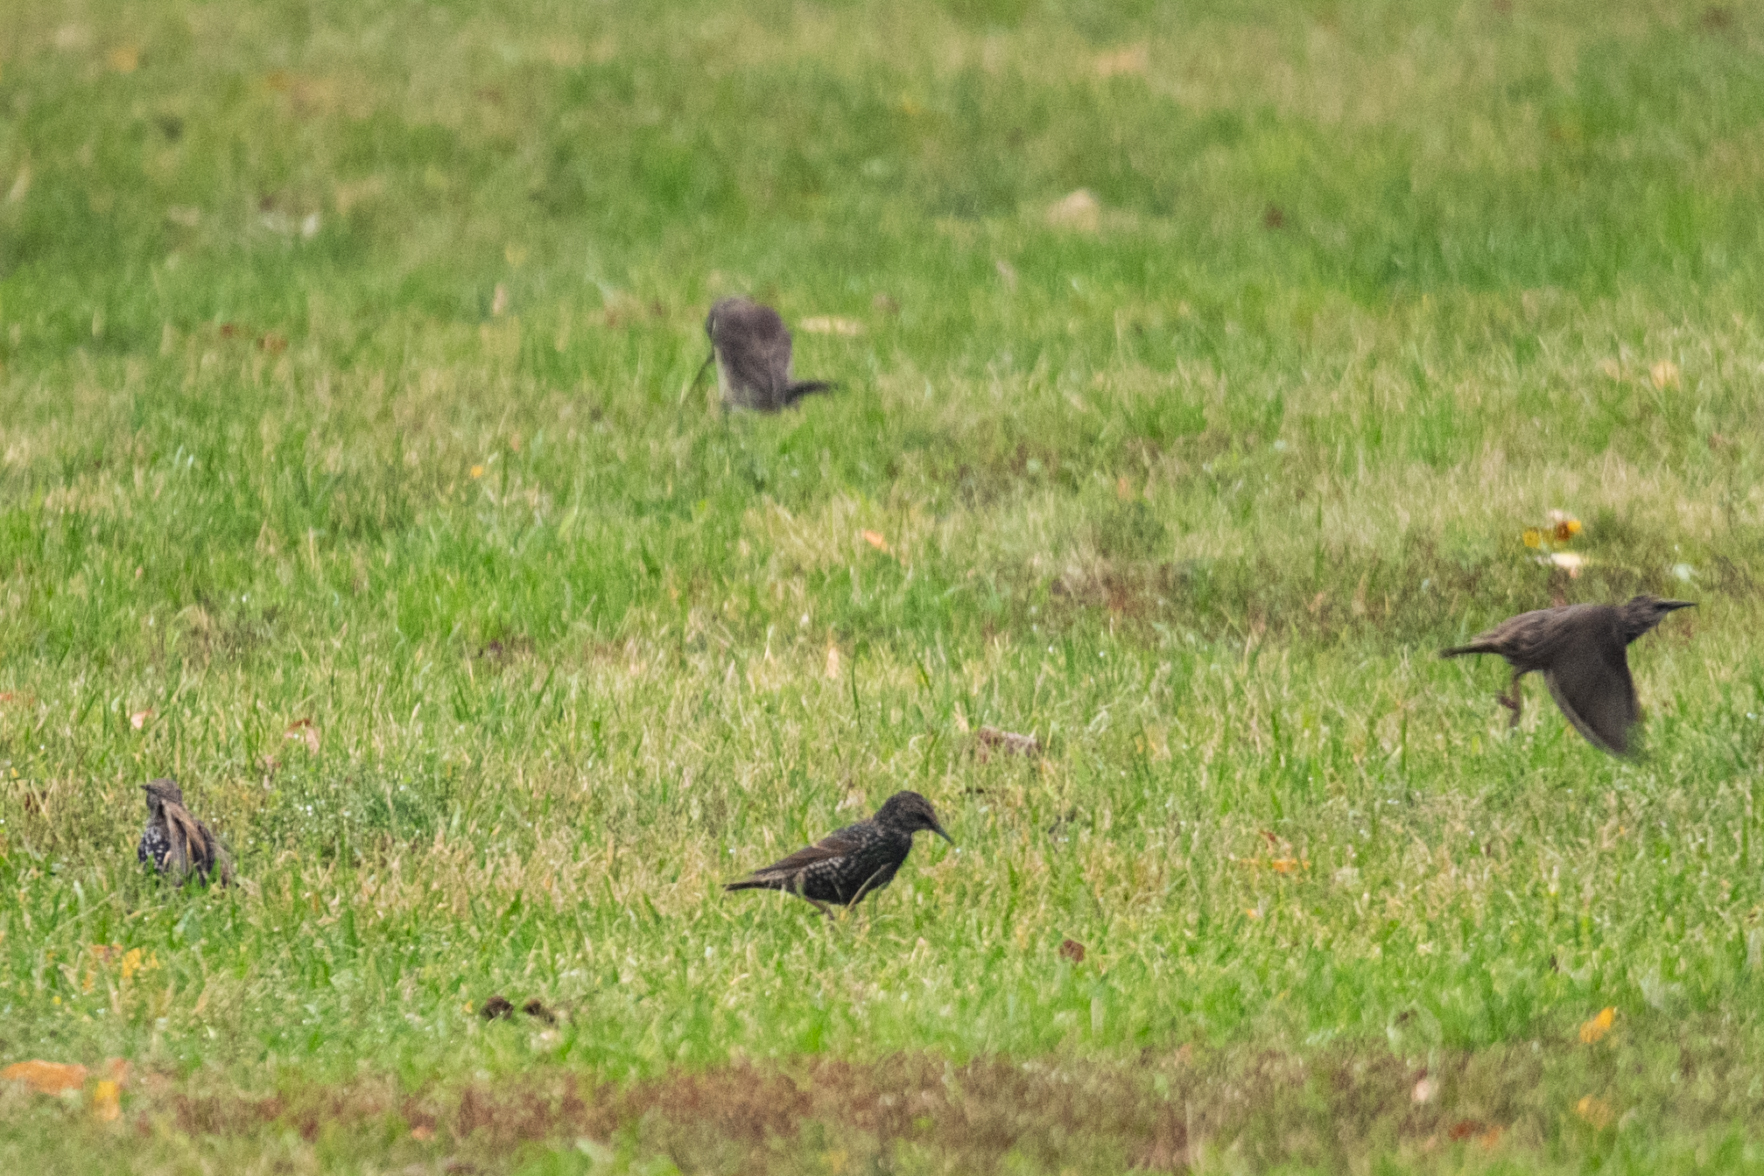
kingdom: Animalia
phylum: Chordata
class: Aves
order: Passeriformes
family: Sturnidae
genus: Sturnus
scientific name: Sturnus vulgaris
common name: Common starling
